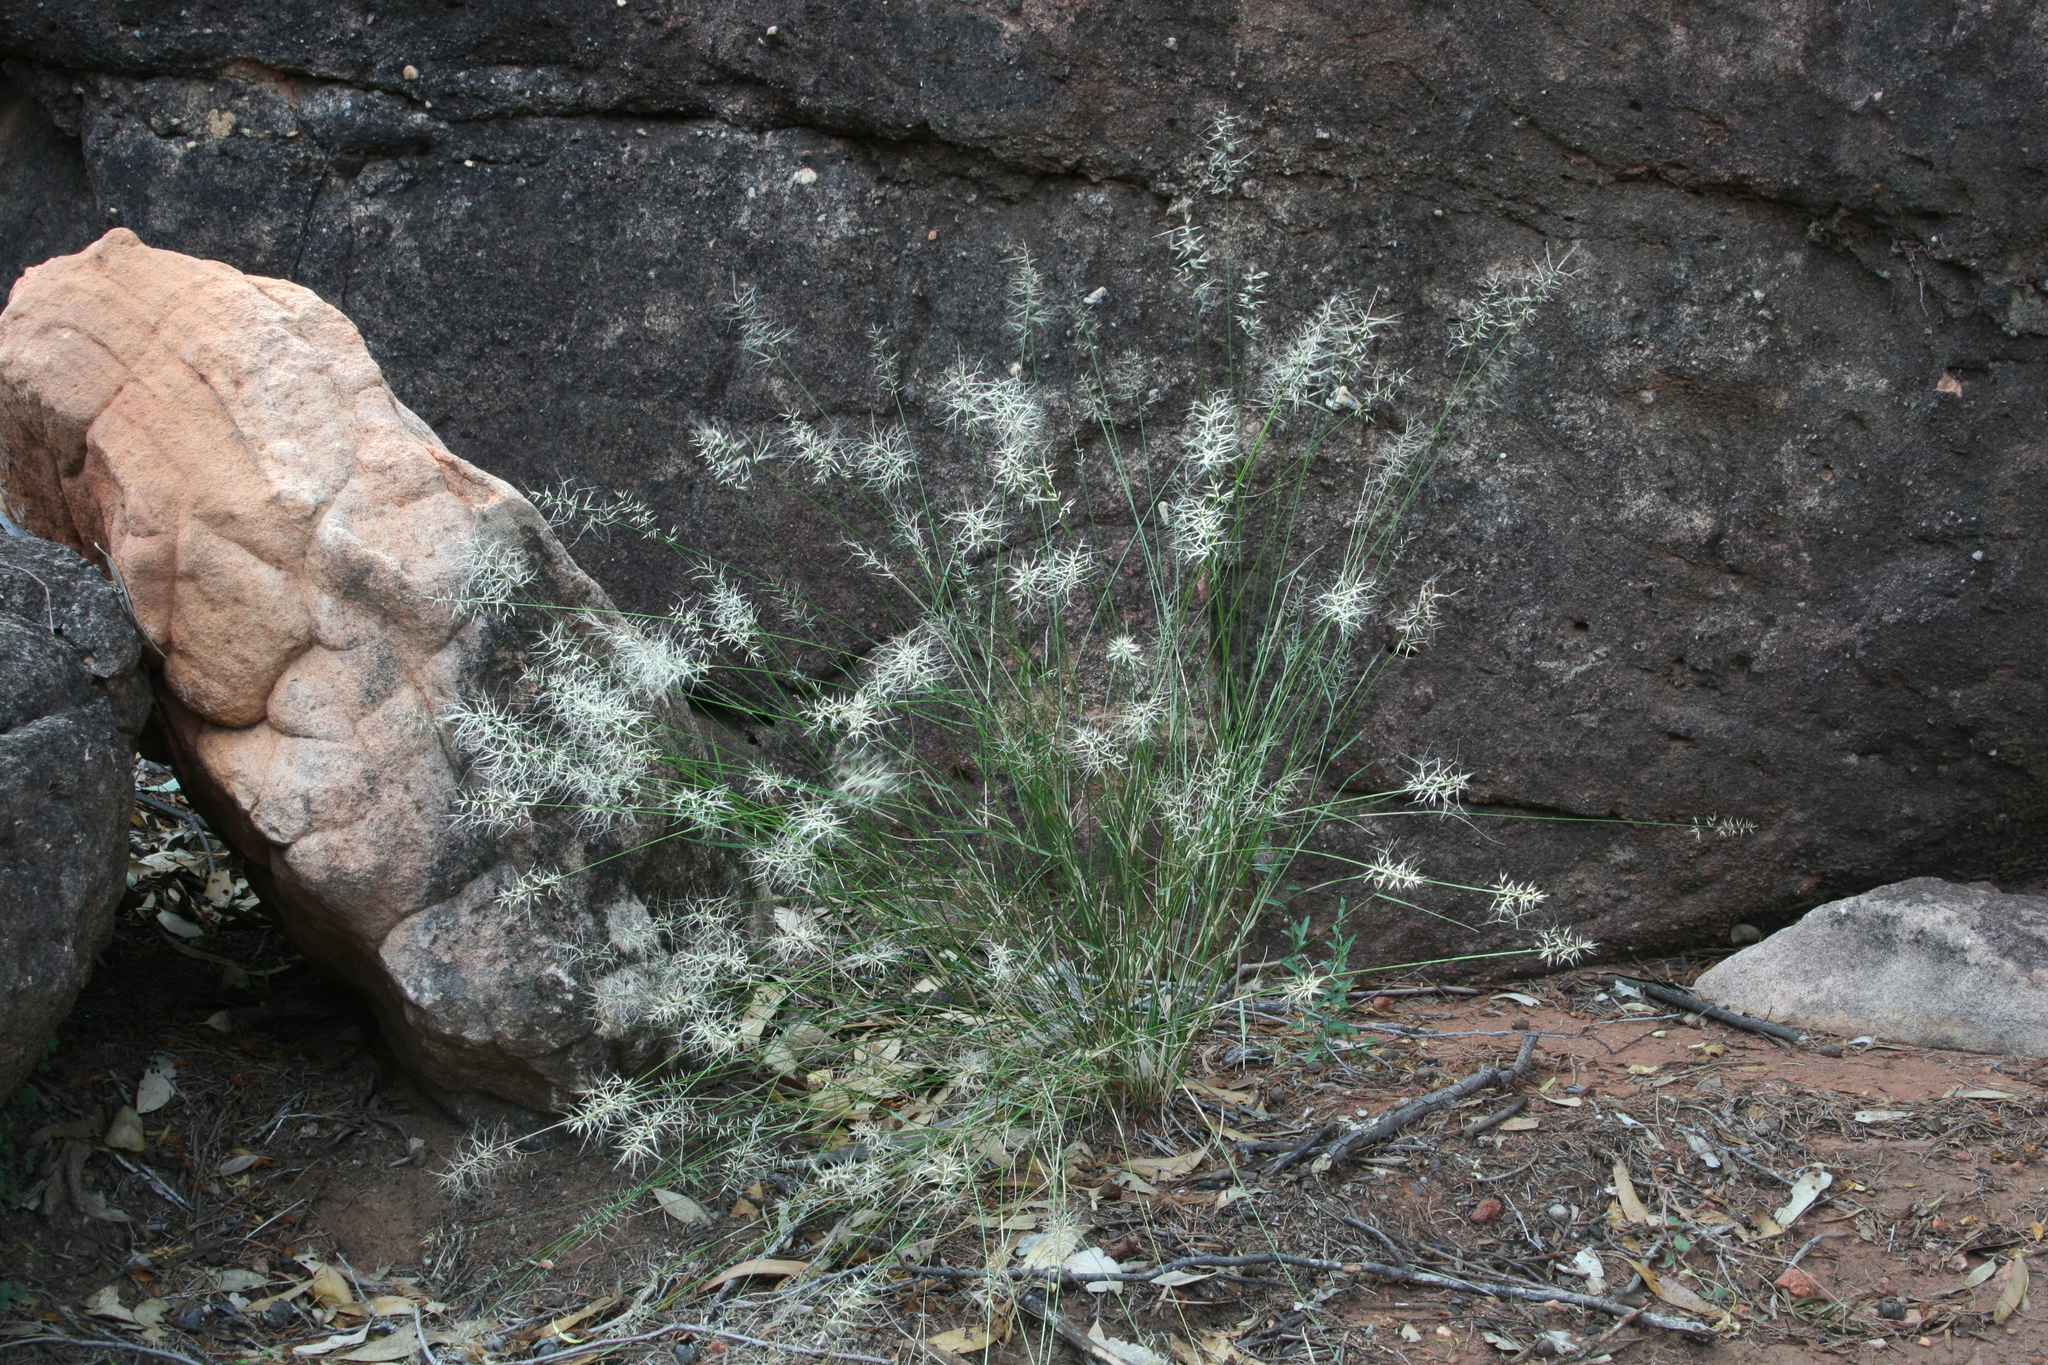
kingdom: Plantae
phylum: Tracheophyta
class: Liliopsida
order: Poales
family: Poaceae
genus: Aristida
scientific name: Aristida caput-medusae
